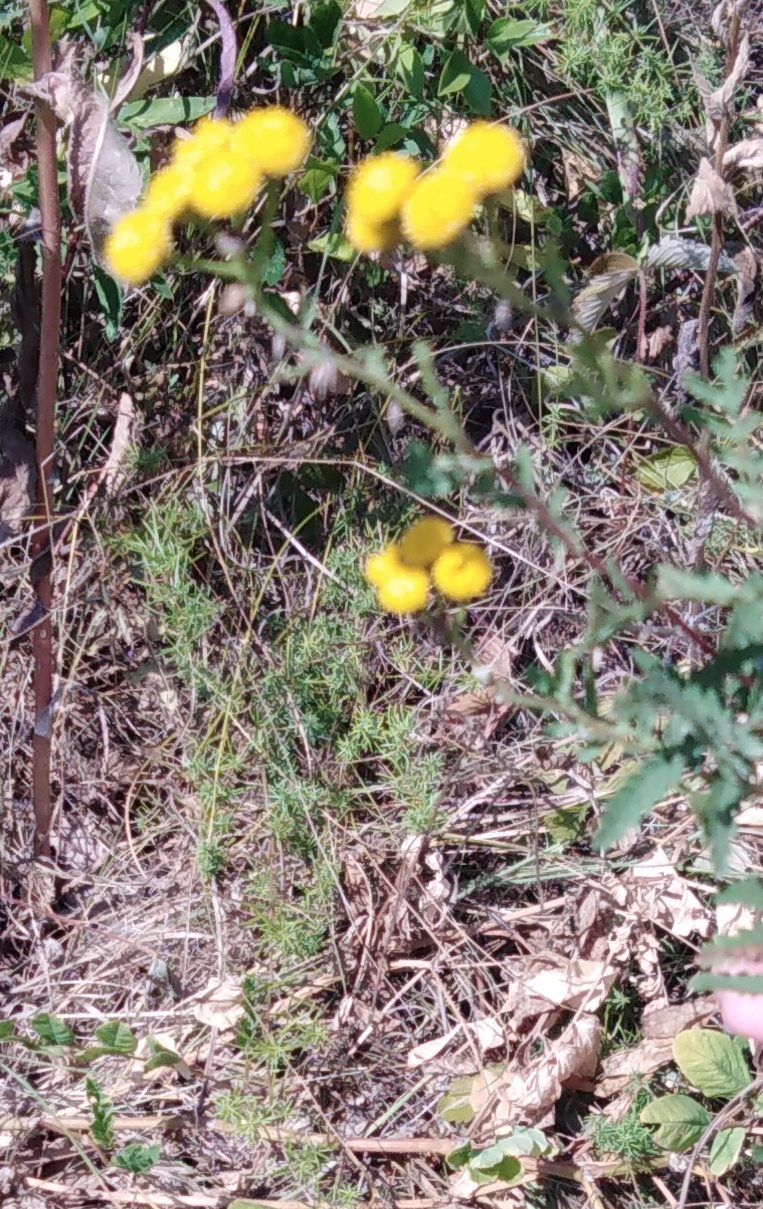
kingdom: Plantae
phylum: Tracheophyta
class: Magnoliopsida
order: Asterales
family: Asteraceae
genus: Tanacetum
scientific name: Tanacetum vulgare
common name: Common tansy
